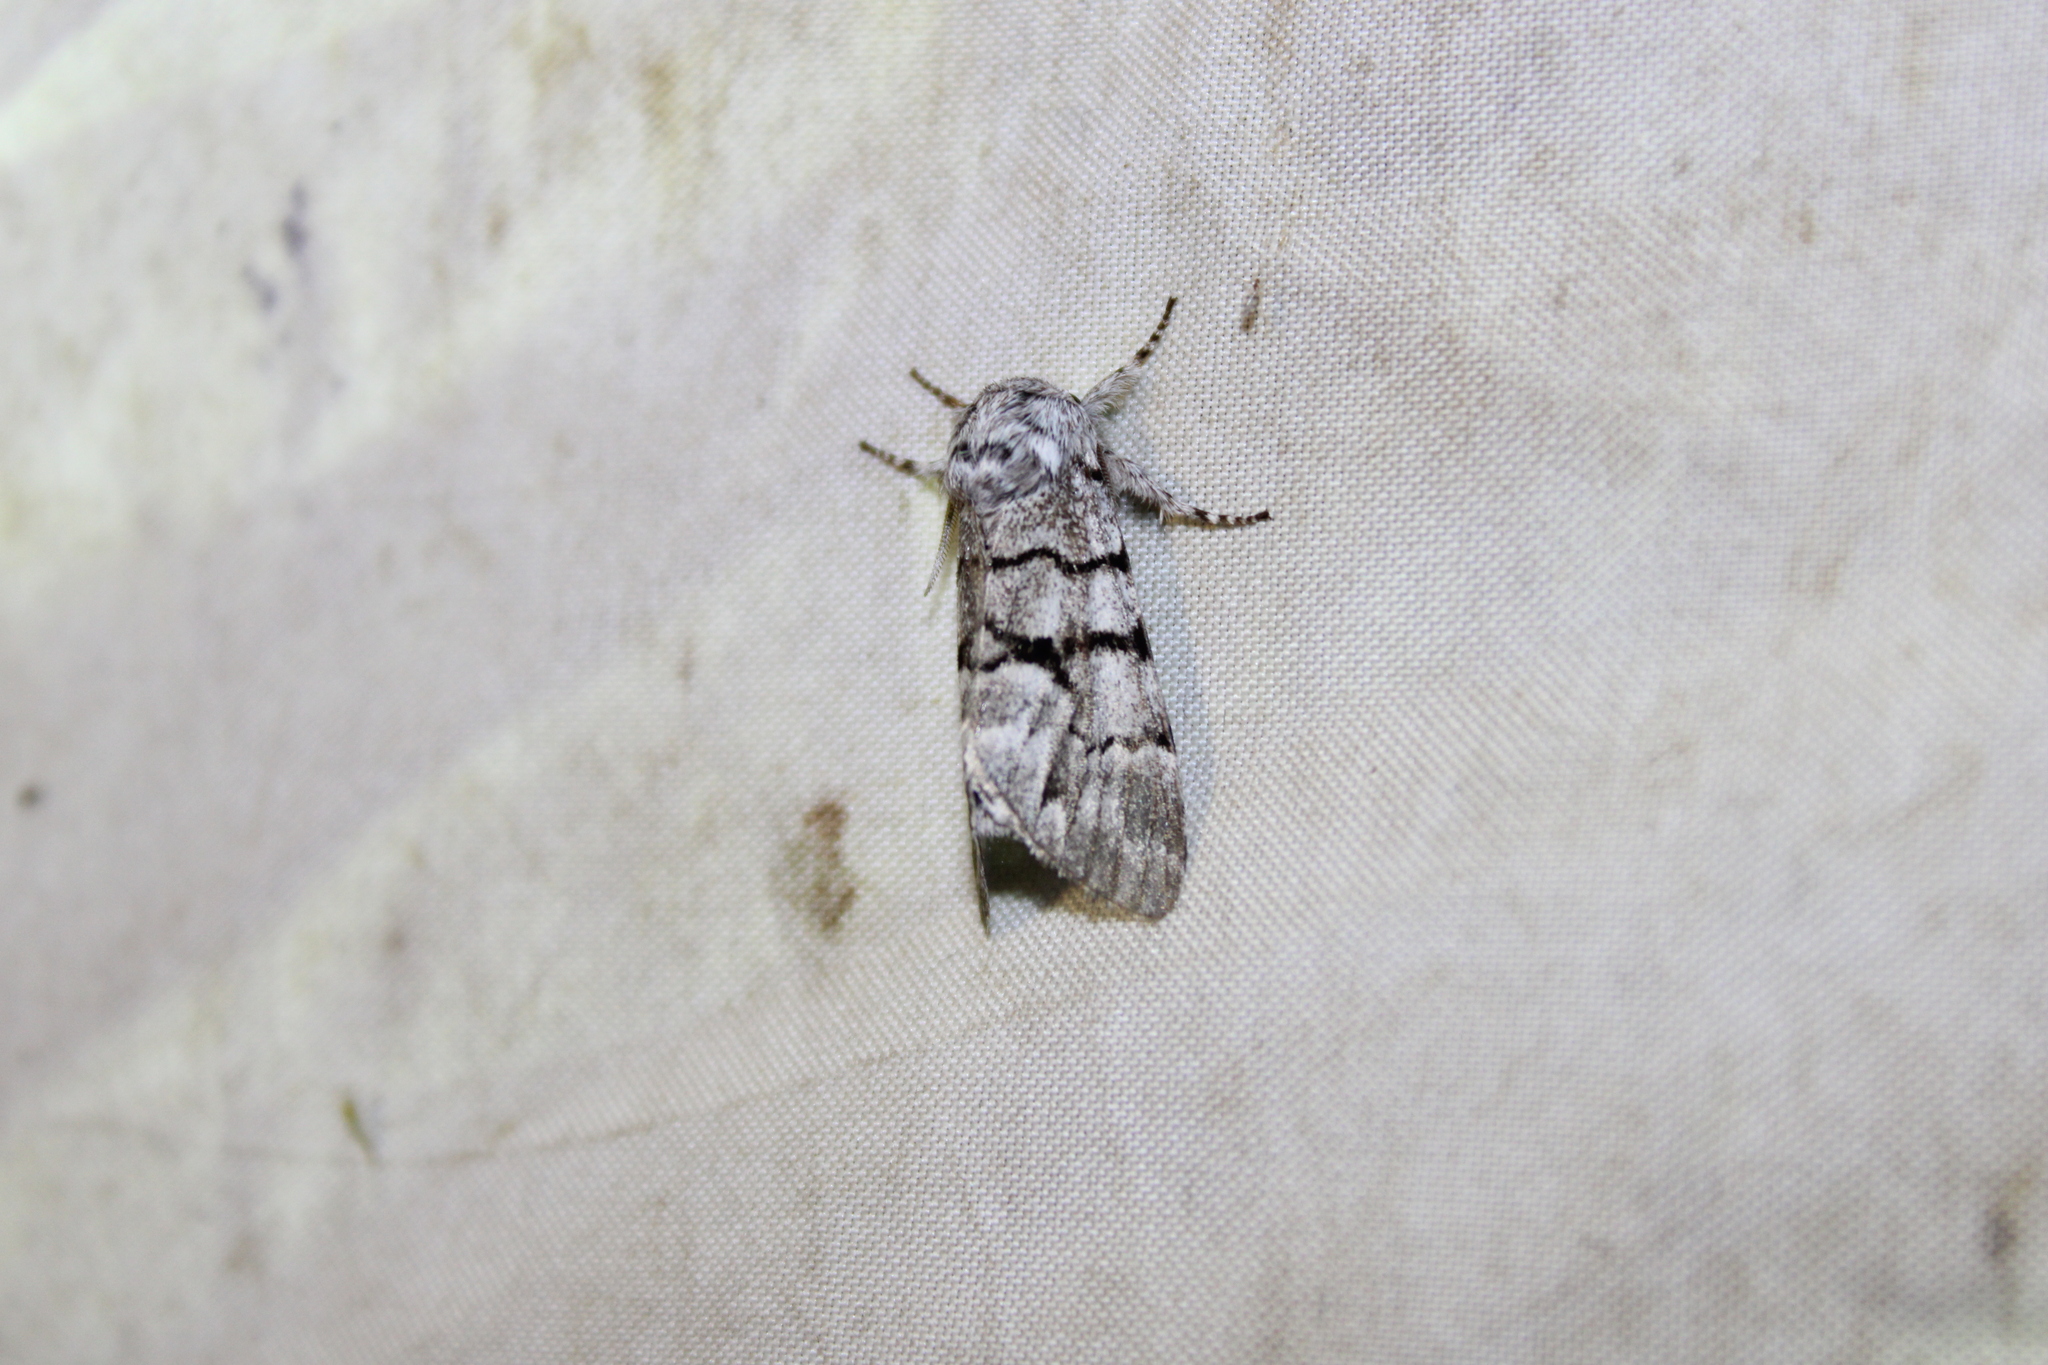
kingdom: Animalia
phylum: Arthropoda
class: Insecta
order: Lepidoptera
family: Noctuidae
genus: Panthea
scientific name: Panthea furcilla
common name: Eastern panthea moth
